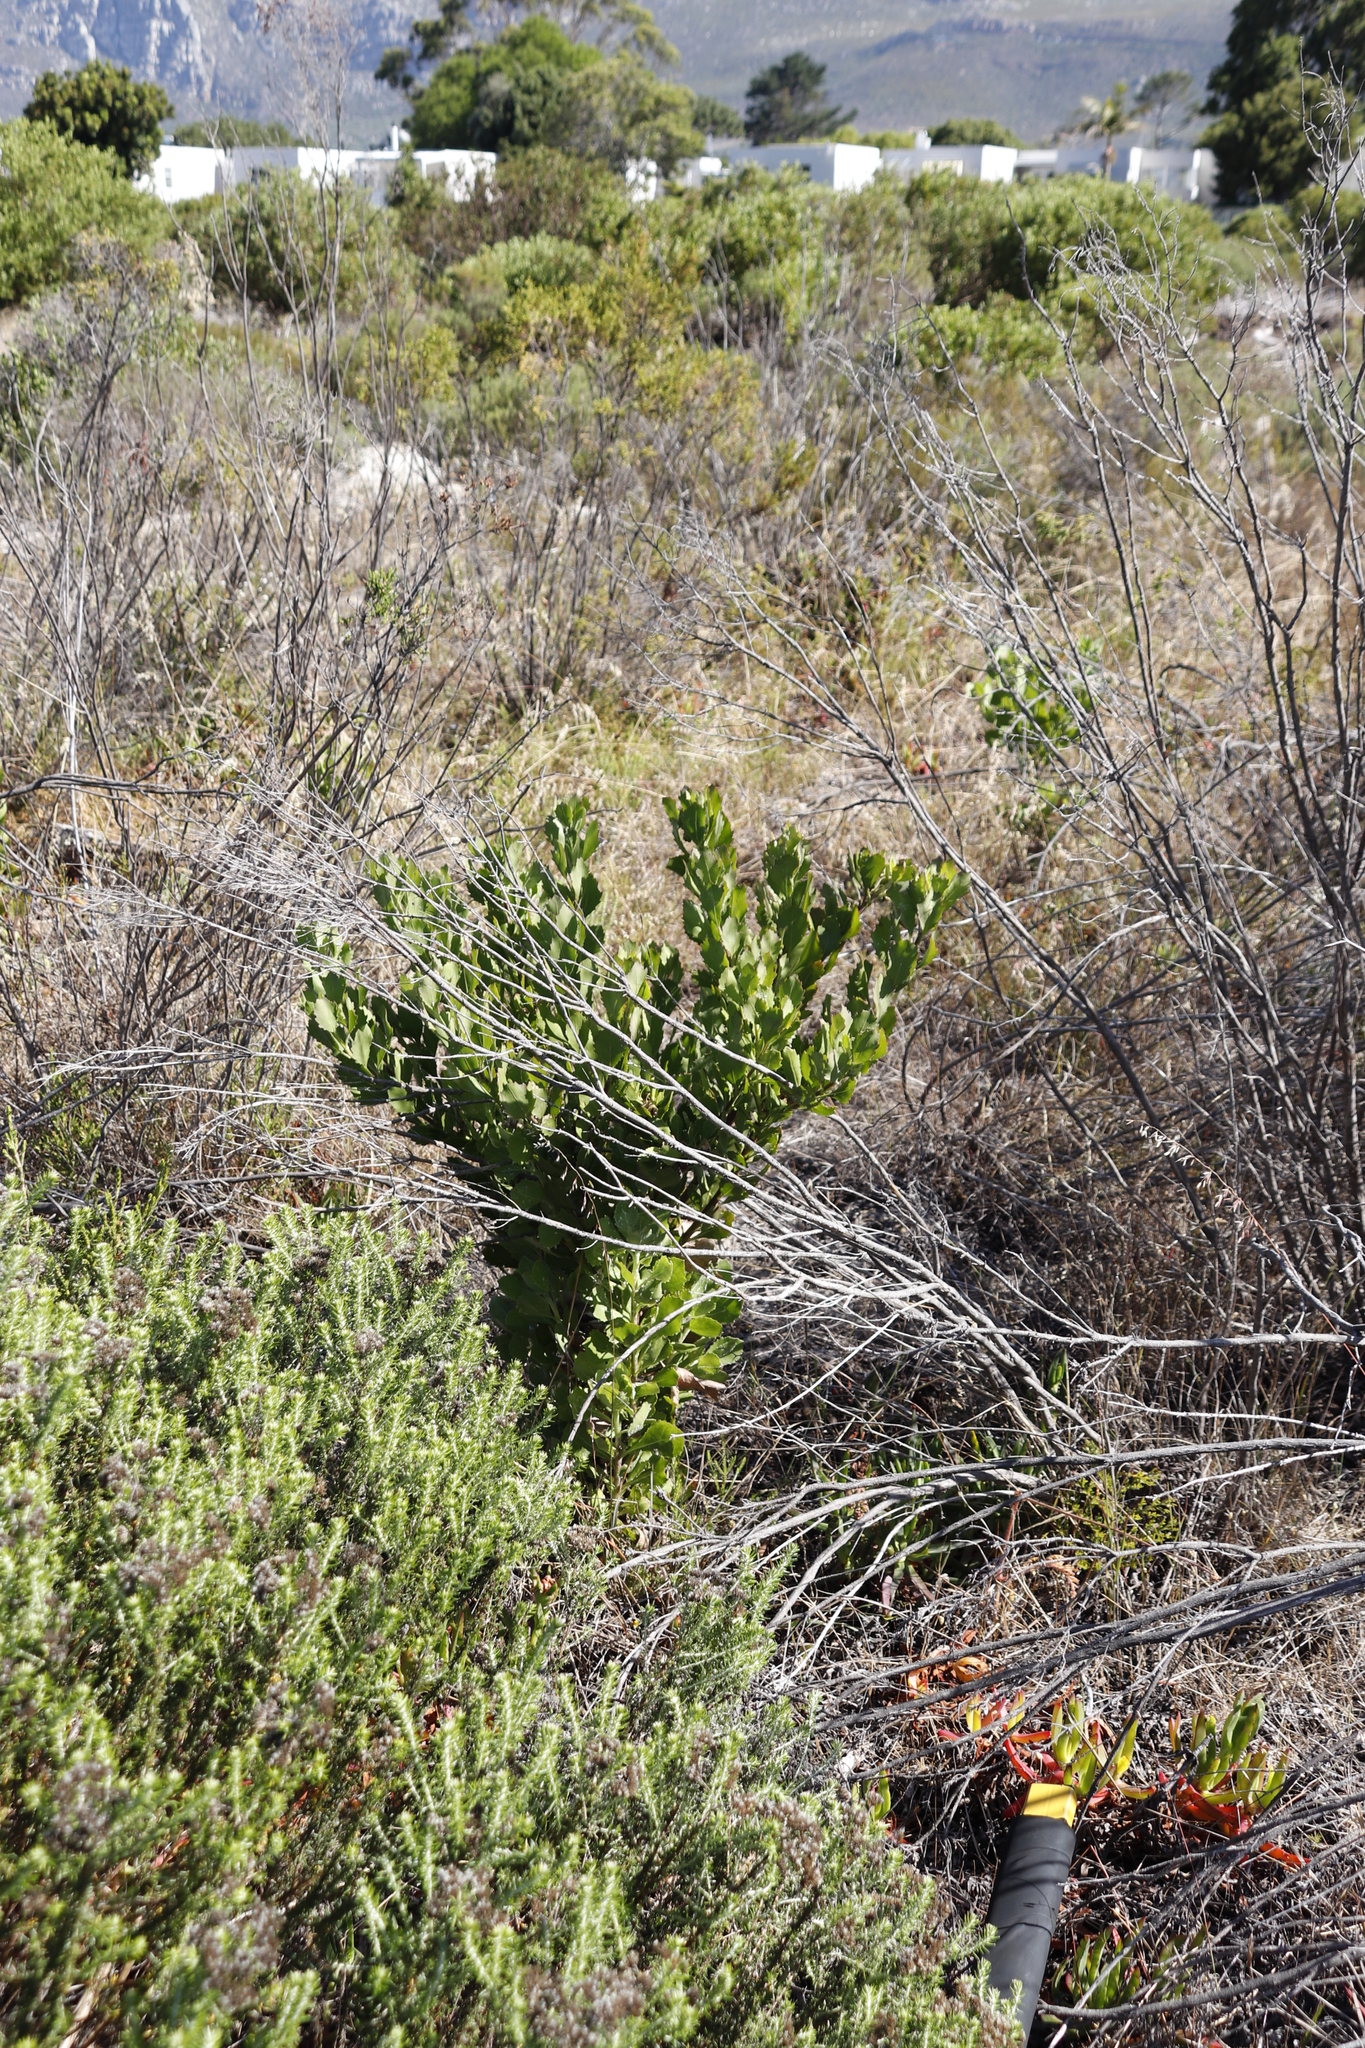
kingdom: Plantae
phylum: Tracheophyta
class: Magnoliopsida
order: Asterales
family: Asteraceae
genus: Osteospermum
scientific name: Osteospermum moniliferum
